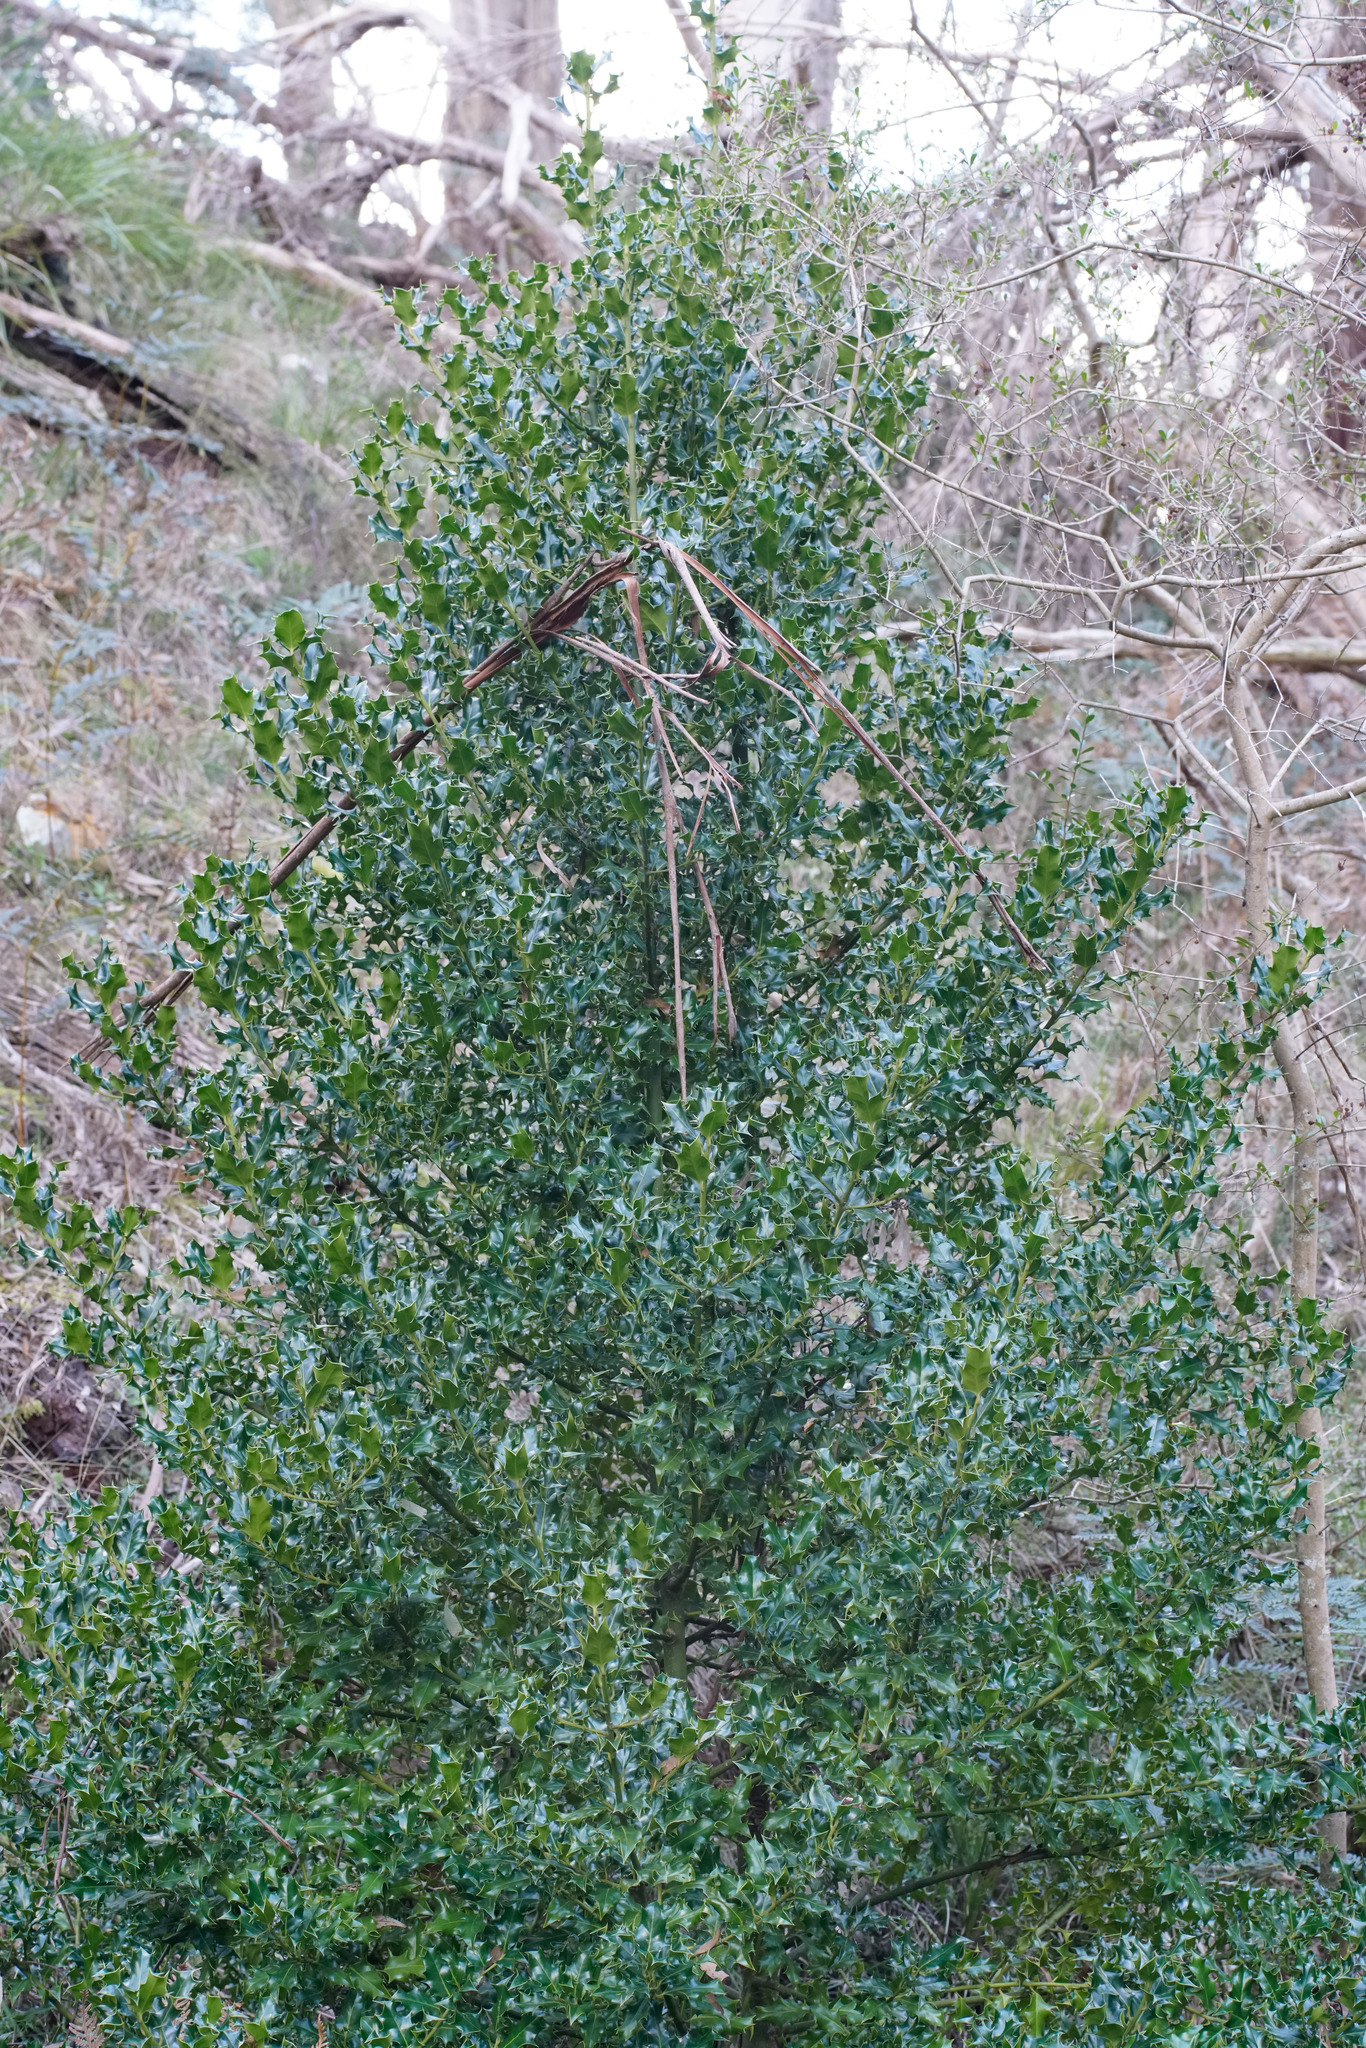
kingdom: Plantae
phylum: Tracheophyta
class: Magnoliopsida
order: Aquifoliales
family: Aquifoliaceae
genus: Ilex
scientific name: Ilex aquifolium
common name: English holly
